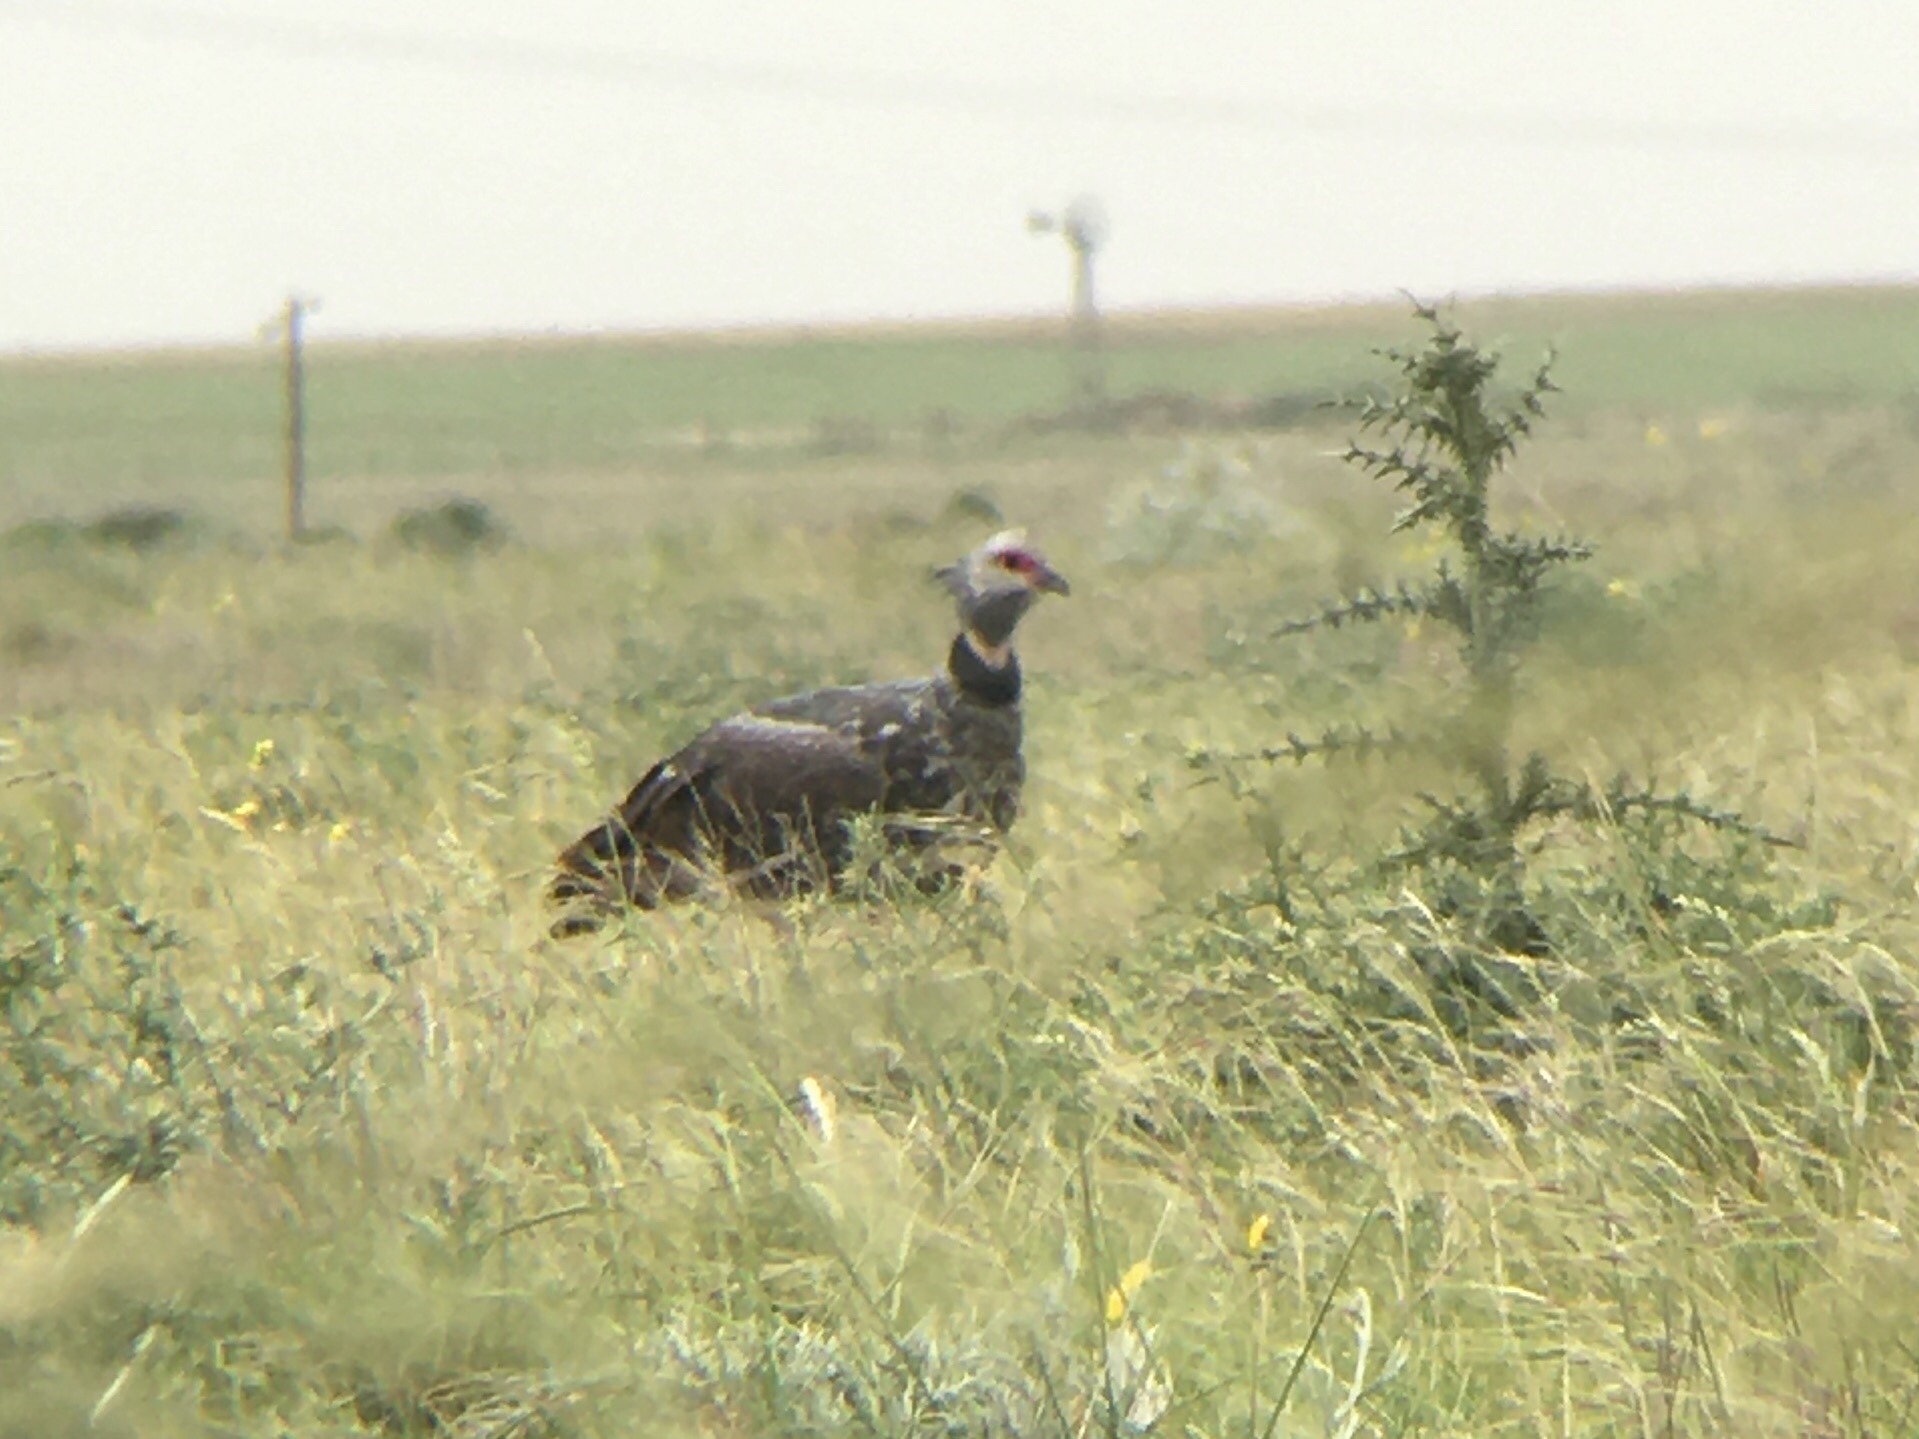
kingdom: Animalia
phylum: Chordata
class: Aves
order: Anseriformes
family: Anhimidae
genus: Chauna
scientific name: Chauna torquata
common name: Southern screamer
